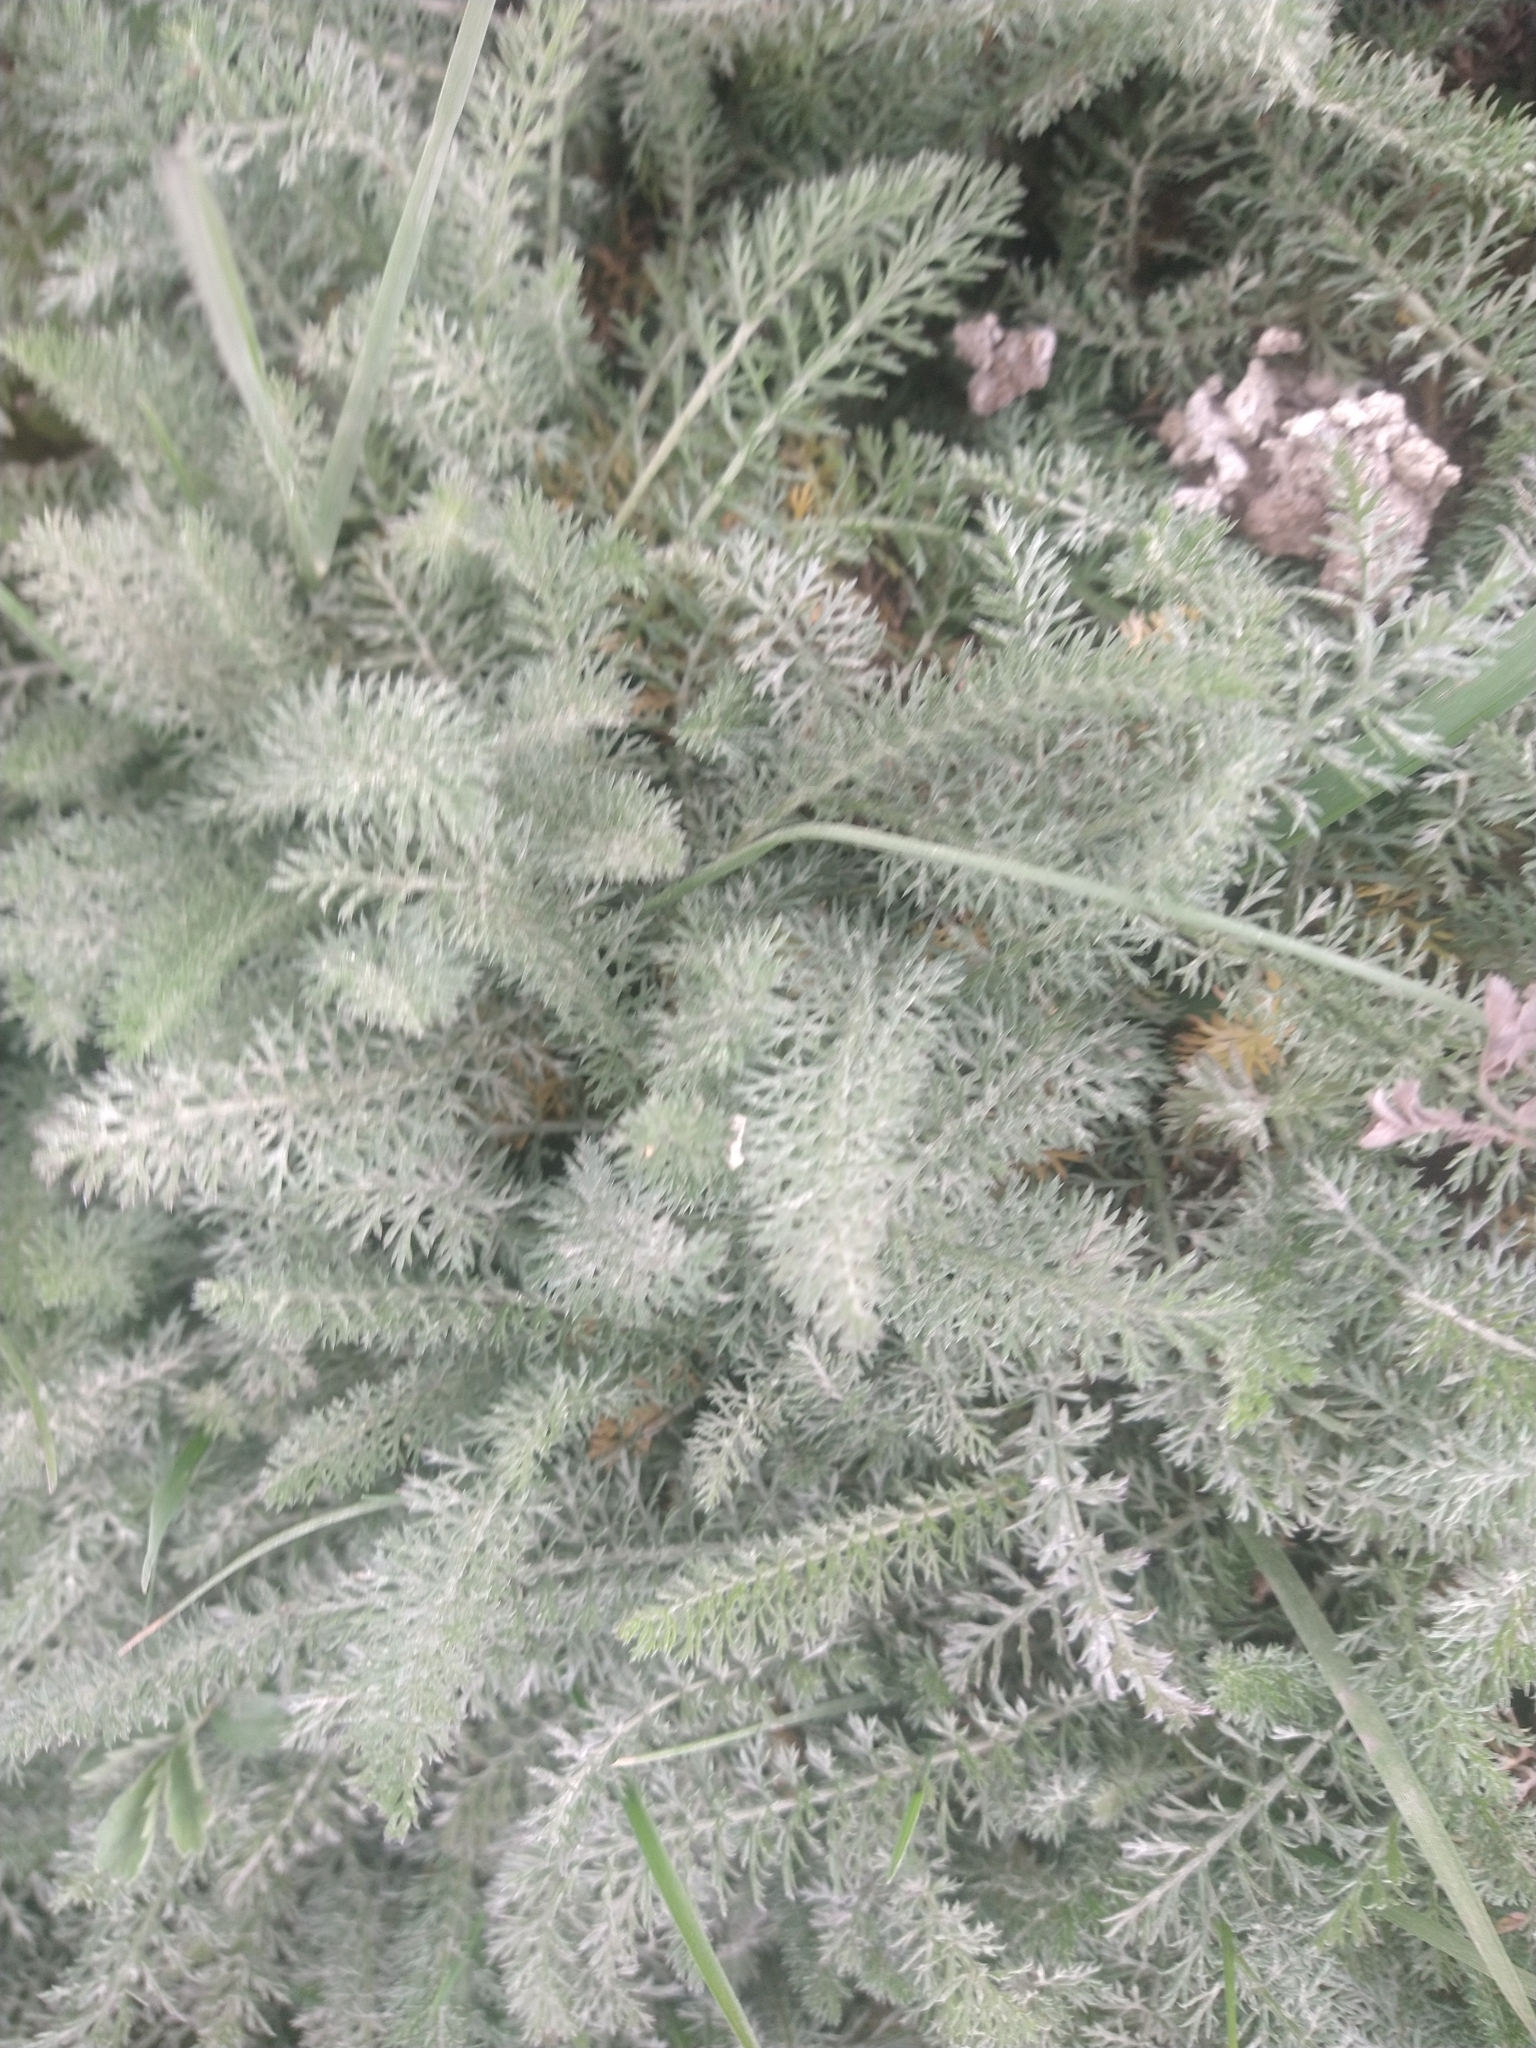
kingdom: Plantae
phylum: Tracheophyta
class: Magnoliopsida
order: Asterales
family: Asteraceae
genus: Achillea
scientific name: Achillea millefolium
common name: Yarrow
